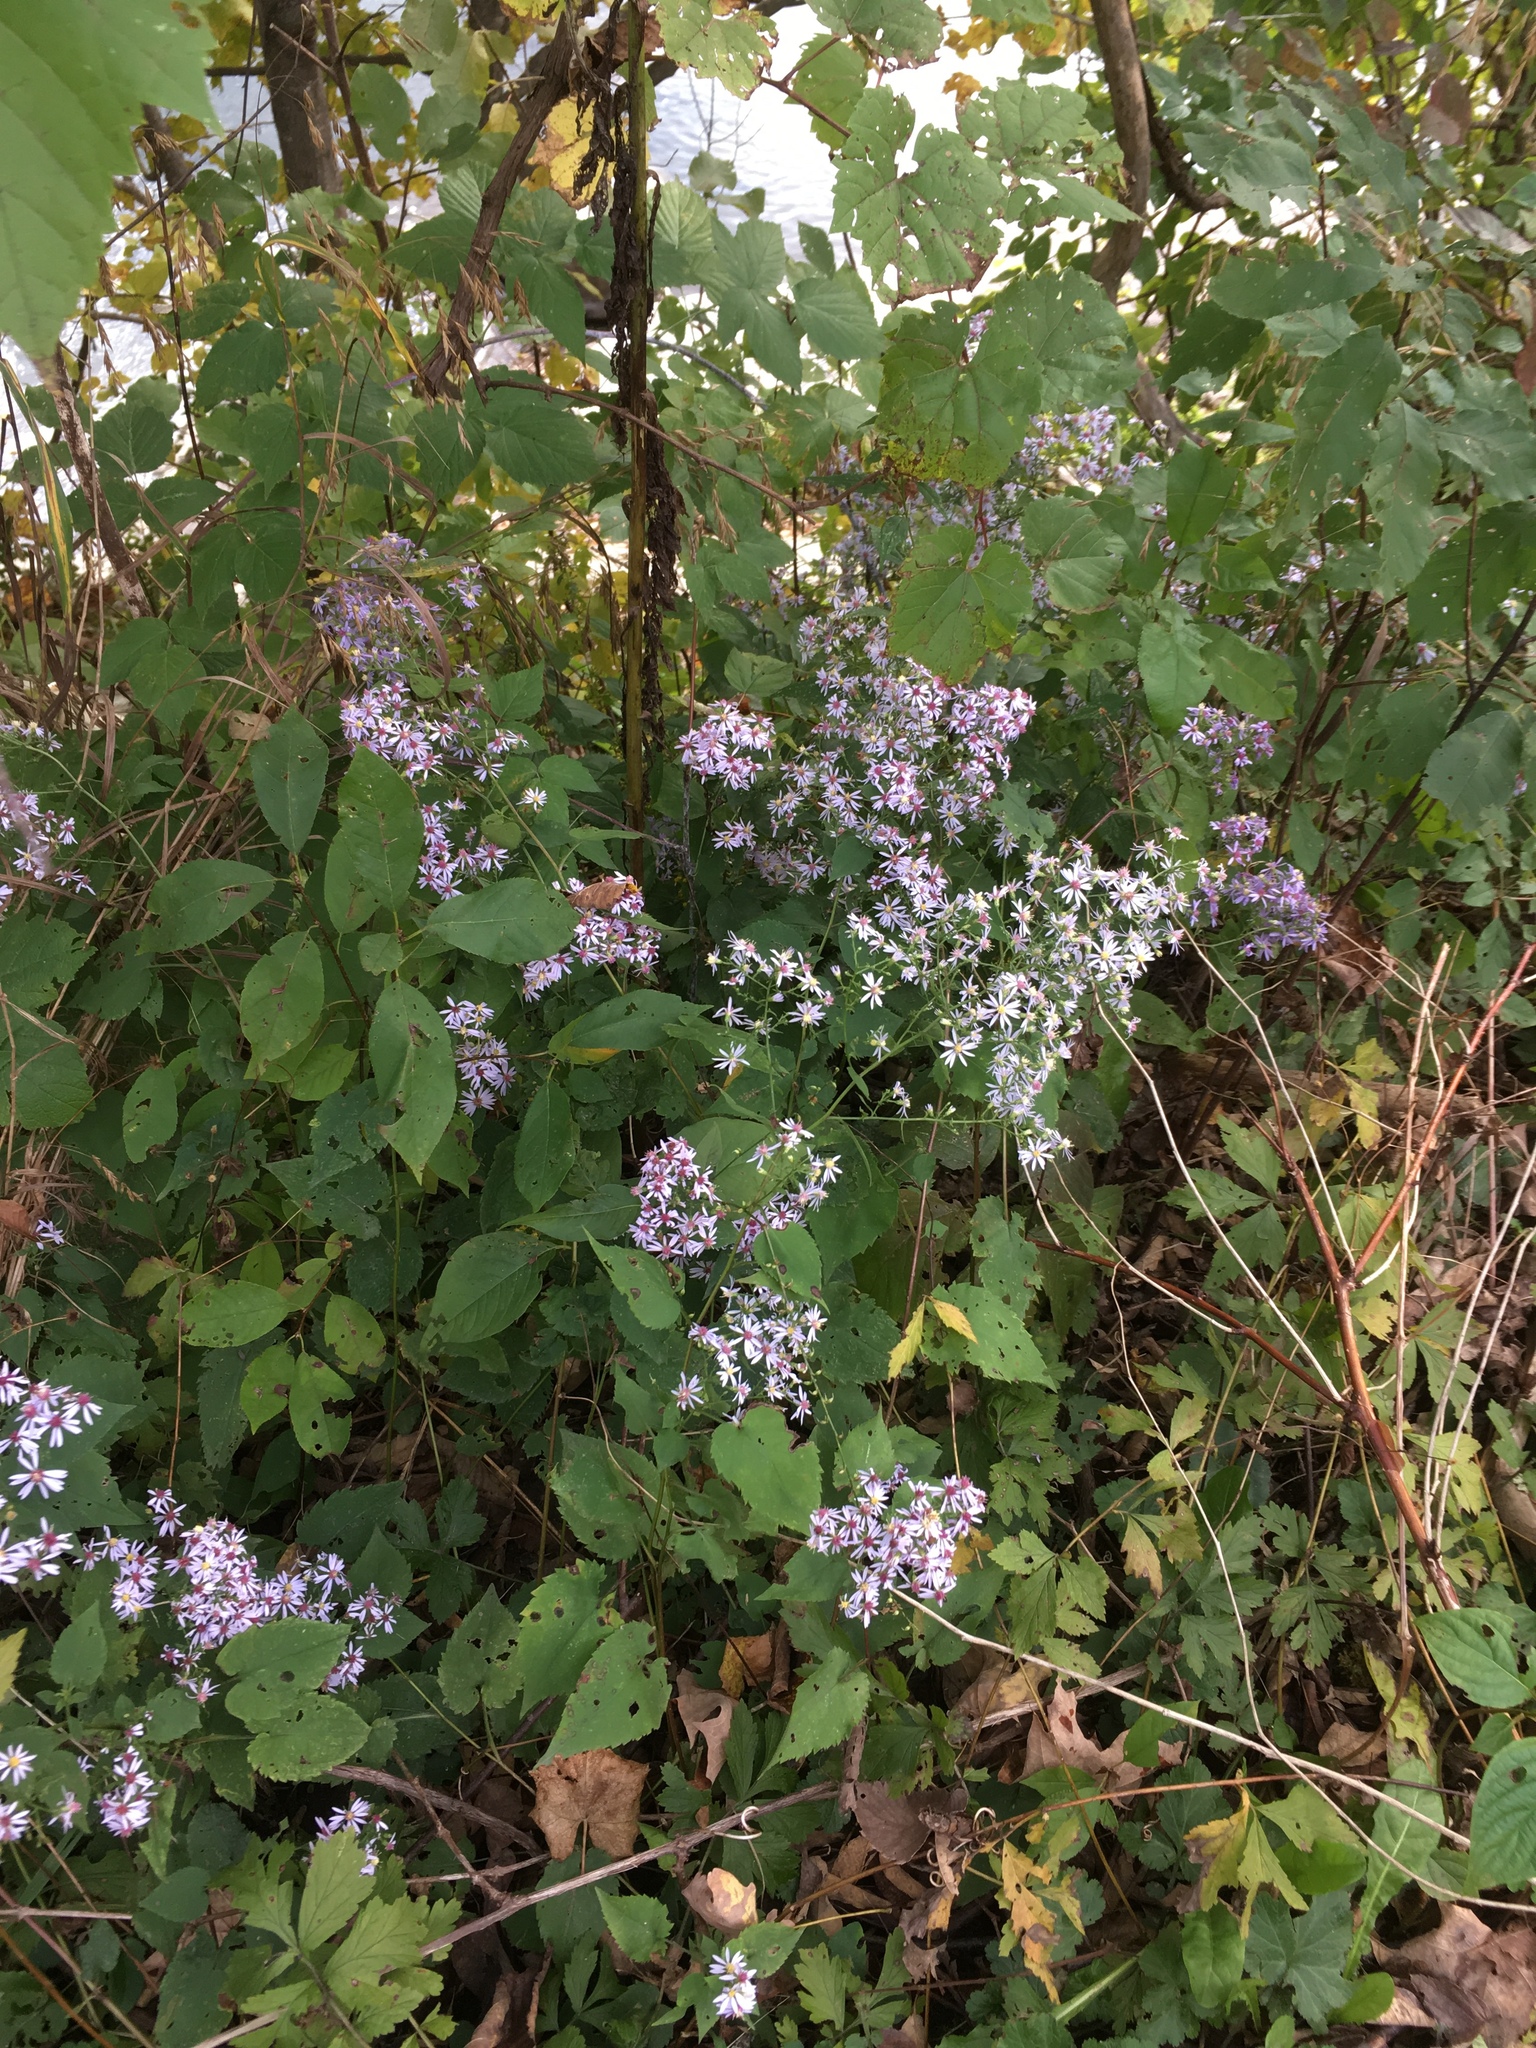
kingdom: Plantae
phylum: Tracheophyta
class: Magnoliopsida
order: Asterales
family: Asteraceae
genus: Symphyotrichum
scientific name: Symphyotrichum cordifolium
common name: Beeweed
